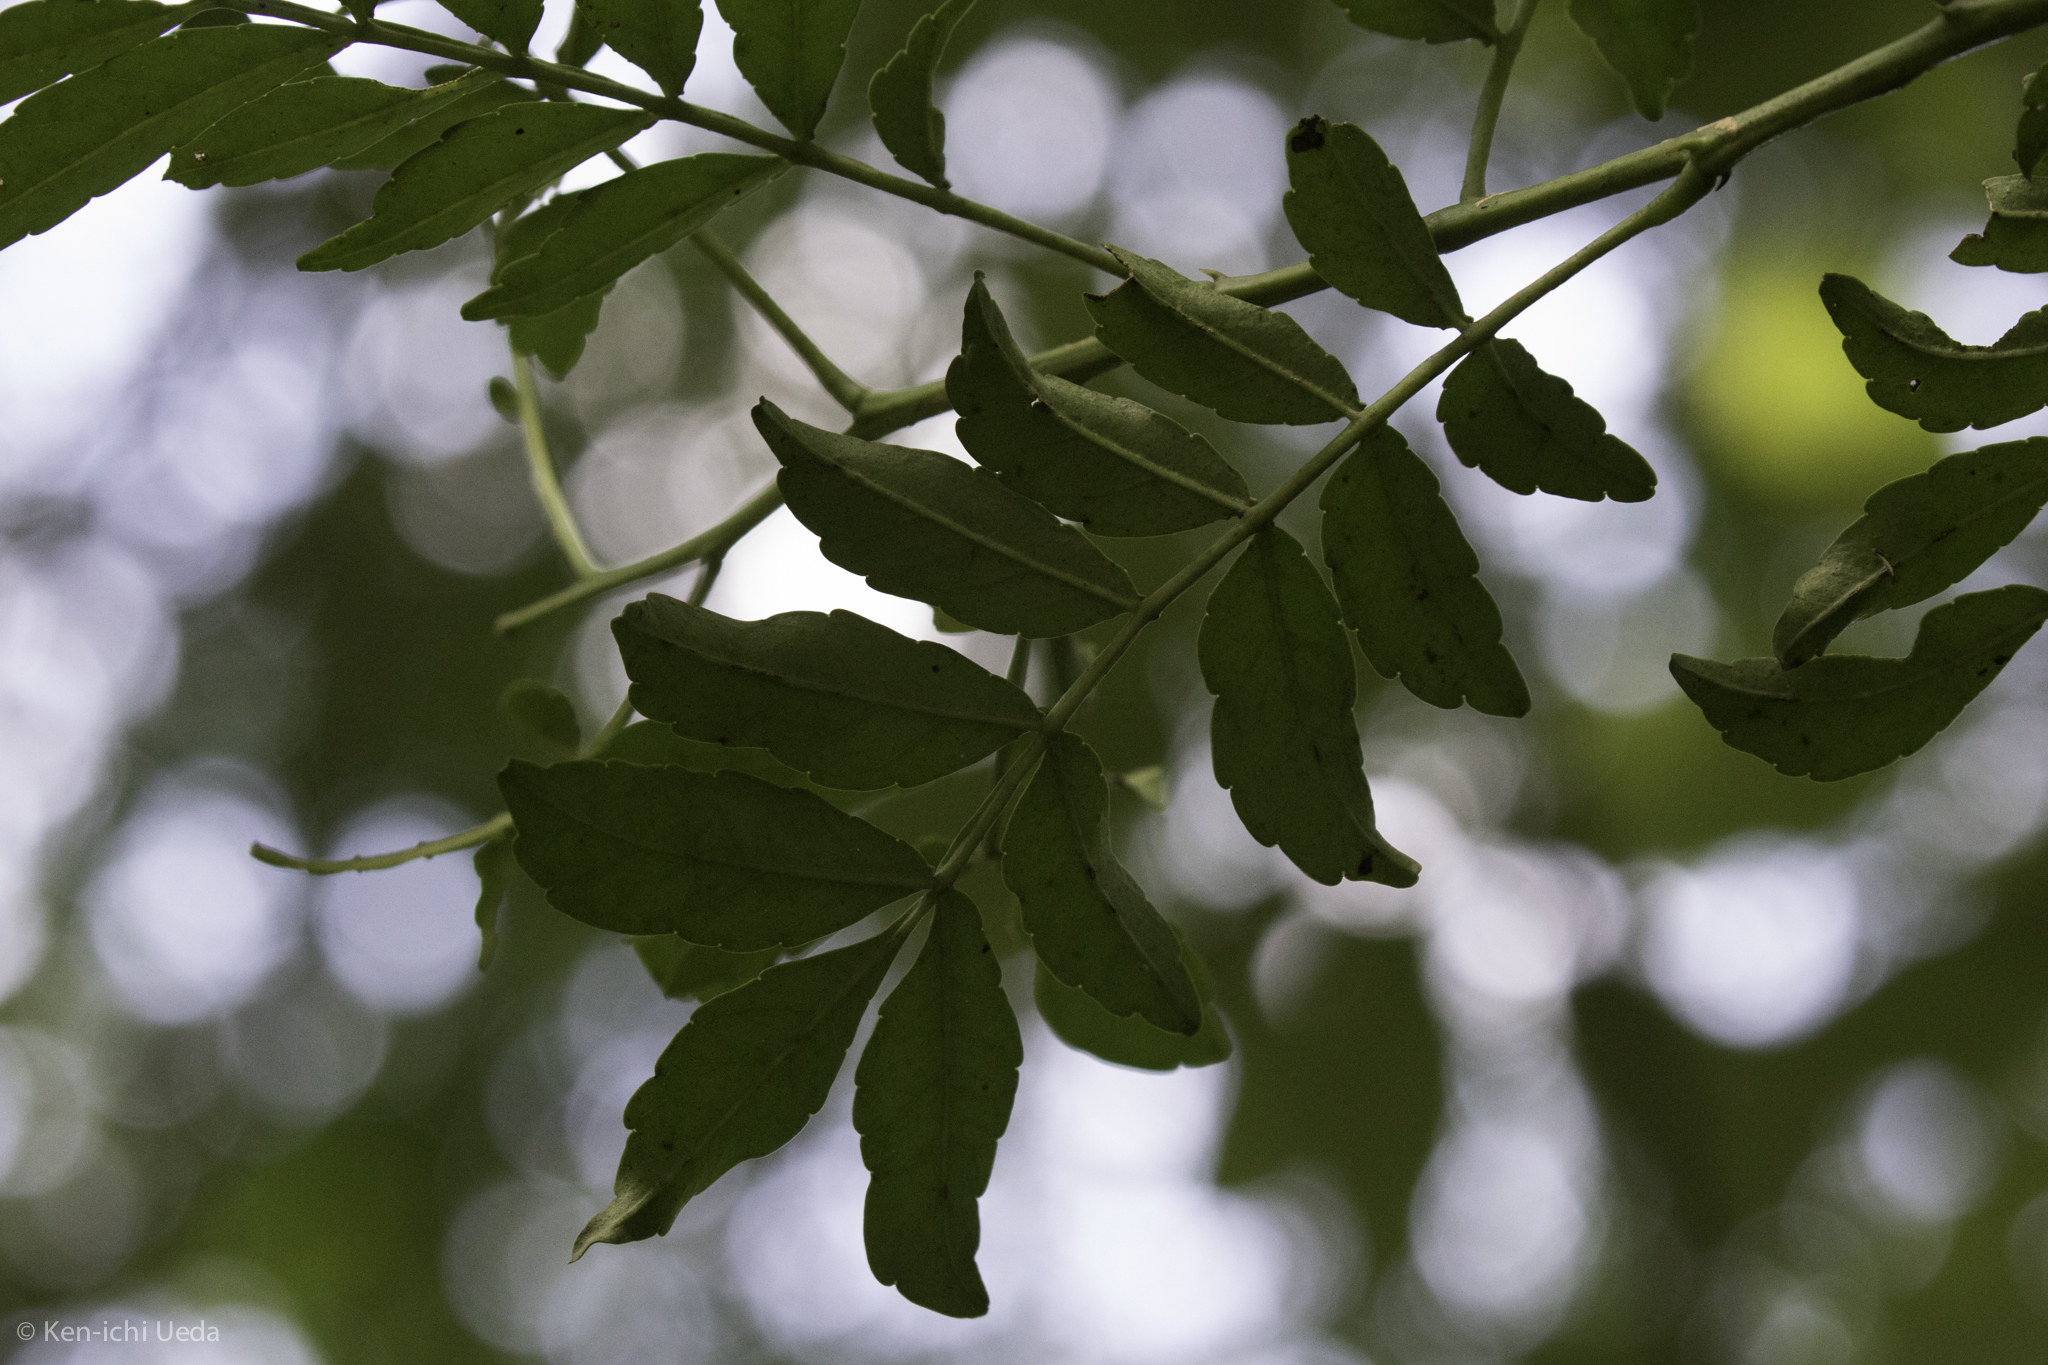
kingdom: Plantae
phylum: Tracheophyta
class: Magnoliopsida
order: Sapindales
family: Rutaceae
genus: Zanthoxylum
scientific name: Zanthoxylum fagara
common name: Lime prickly-ash
